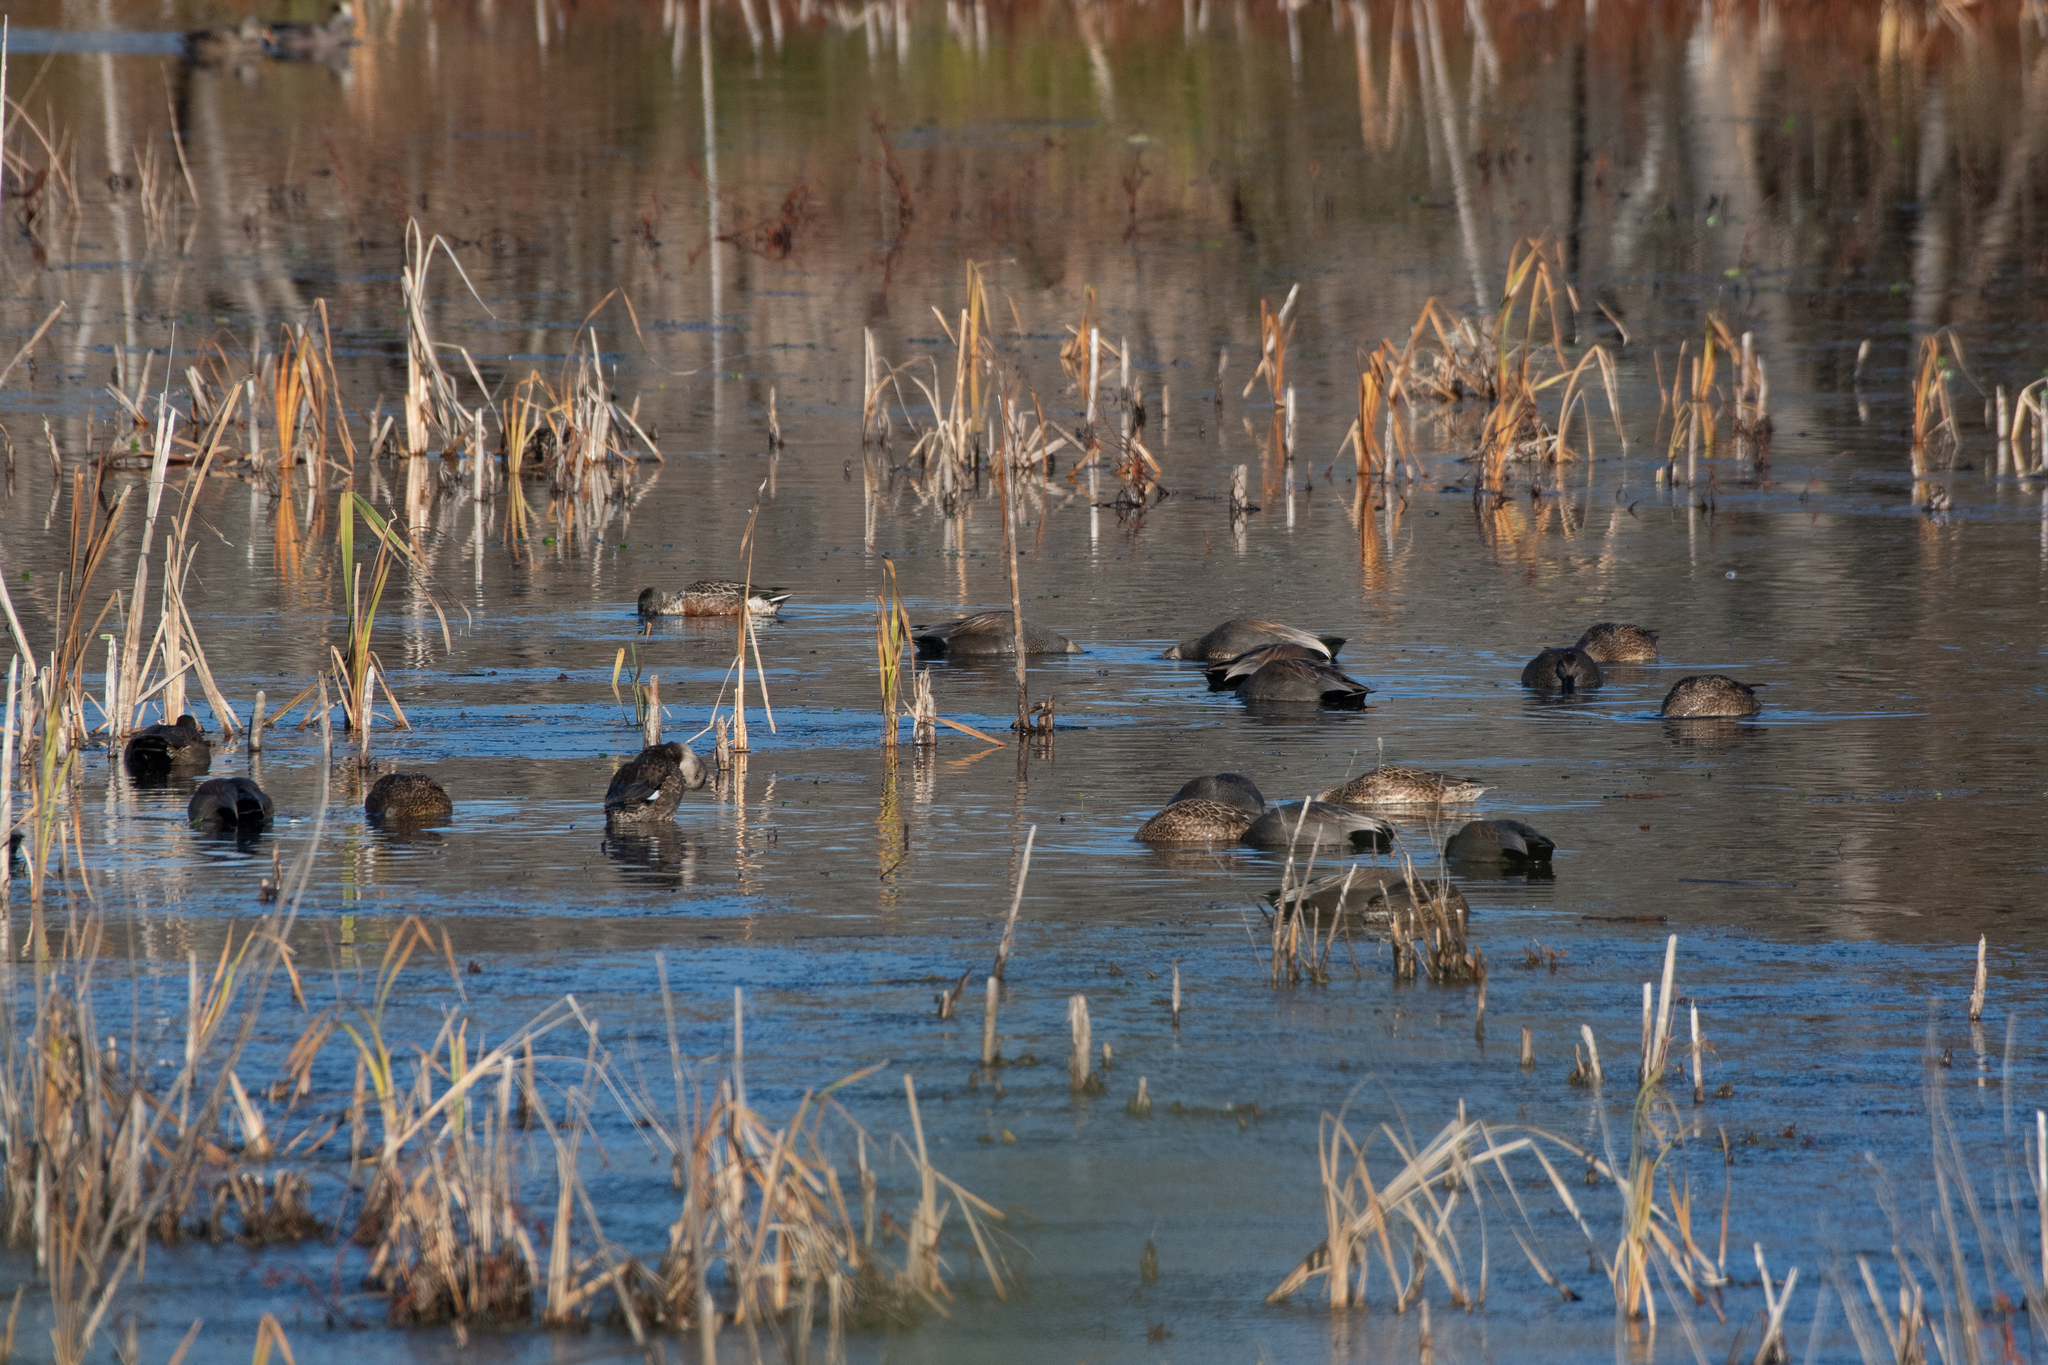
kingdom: Animalia
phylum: Chordata
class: Aves
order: Anseriformes
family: Anatidae
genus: Mareca
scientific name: Mareca strepera
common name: Gadwall
